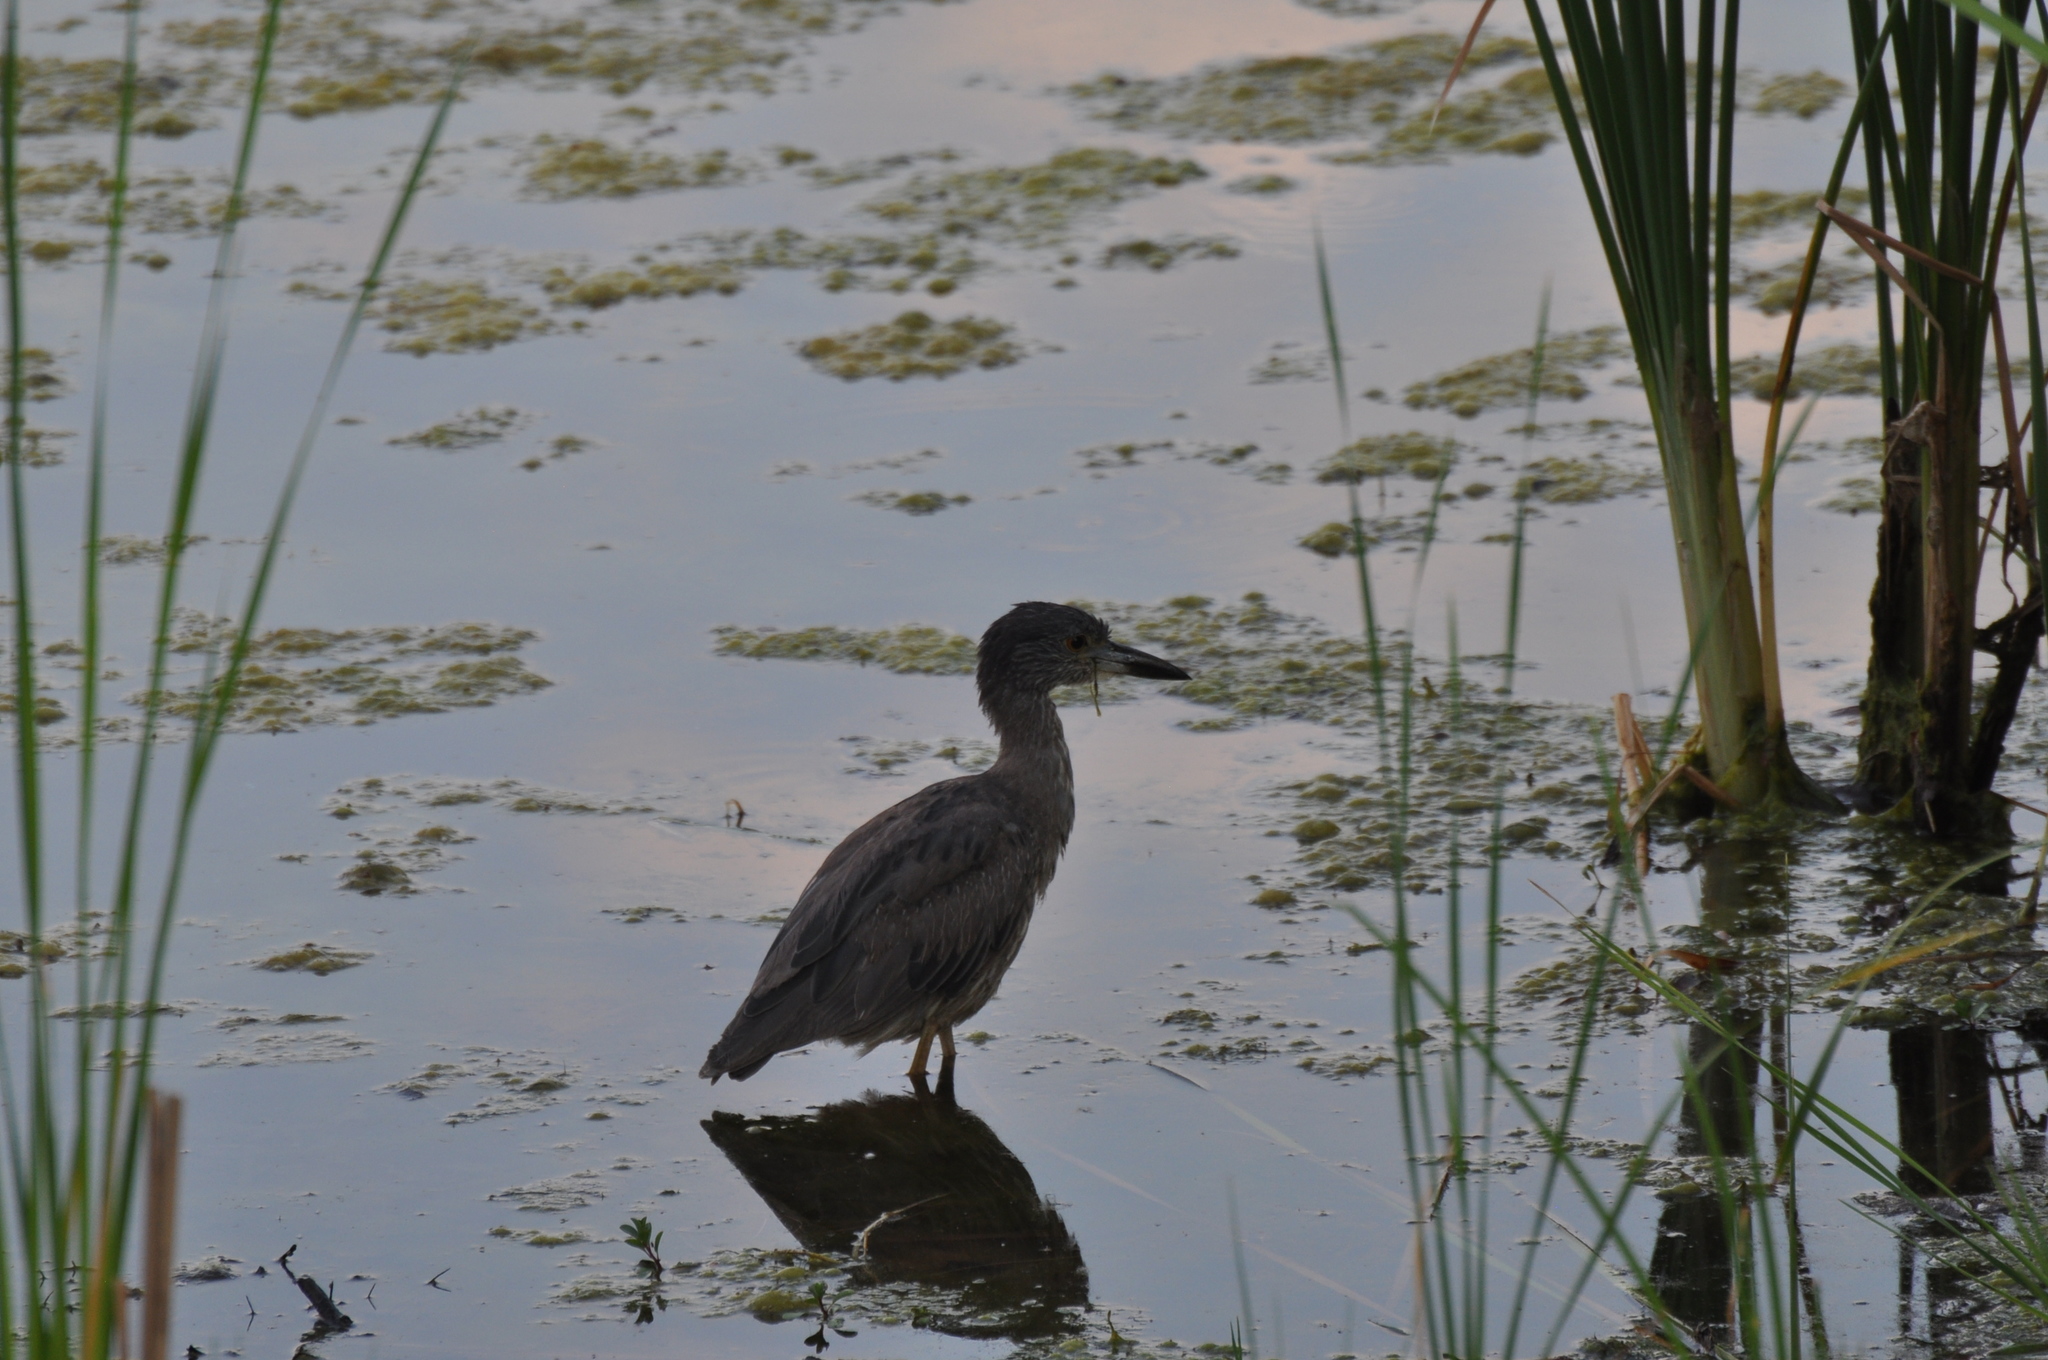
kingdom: Animalia
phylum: Chordata
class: Aves
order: Pelecaniformes
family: Ardeidae
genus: Nyctanassa
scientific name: Nyctanassa violacea
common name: Yellow-crowned night heron
